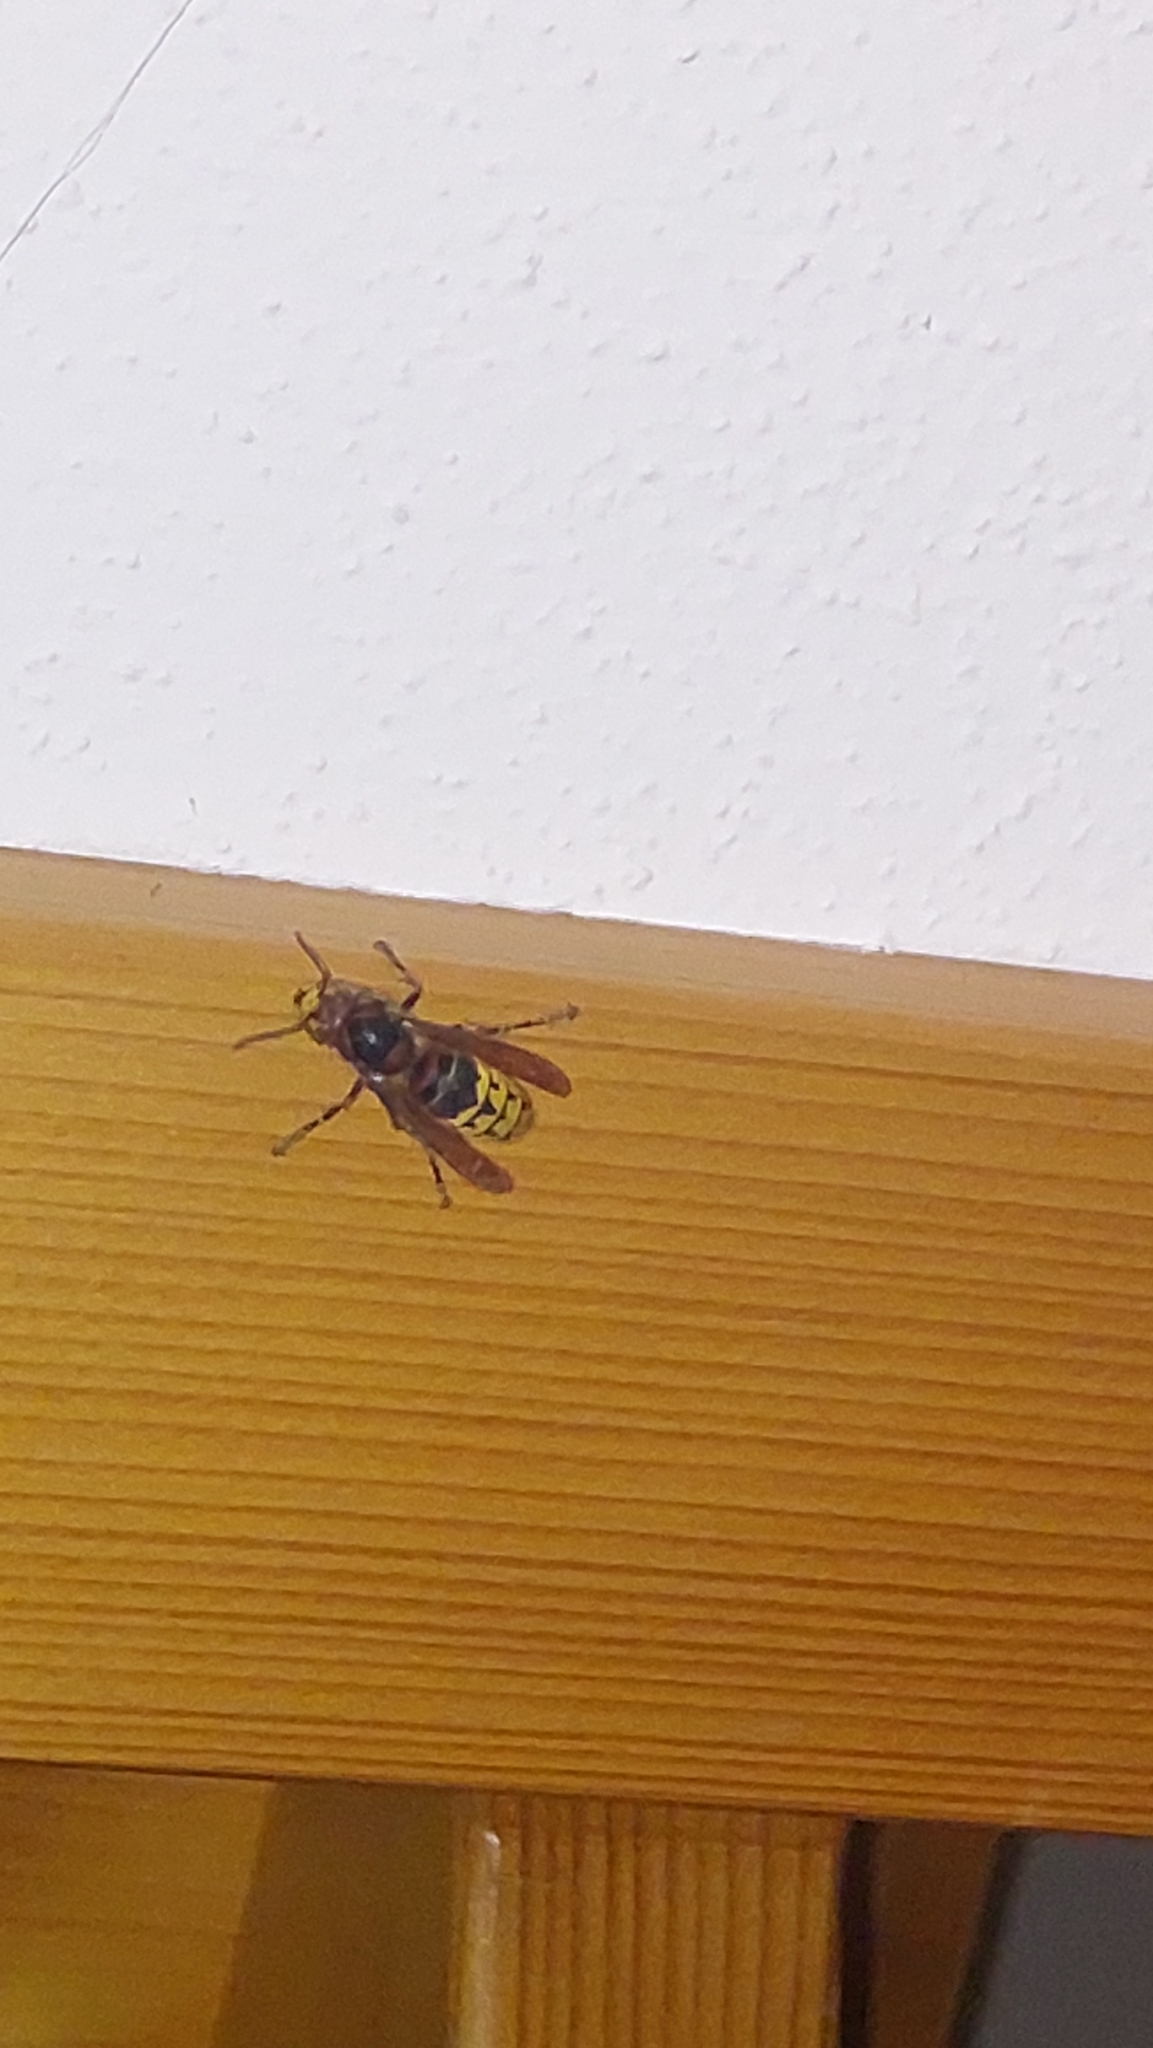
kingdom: Animalia
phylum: Arthropoda
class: Insecta
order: Hymenoptera
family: Vespidae
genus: Vespa
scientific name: Vespa crabro
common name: Hornet
